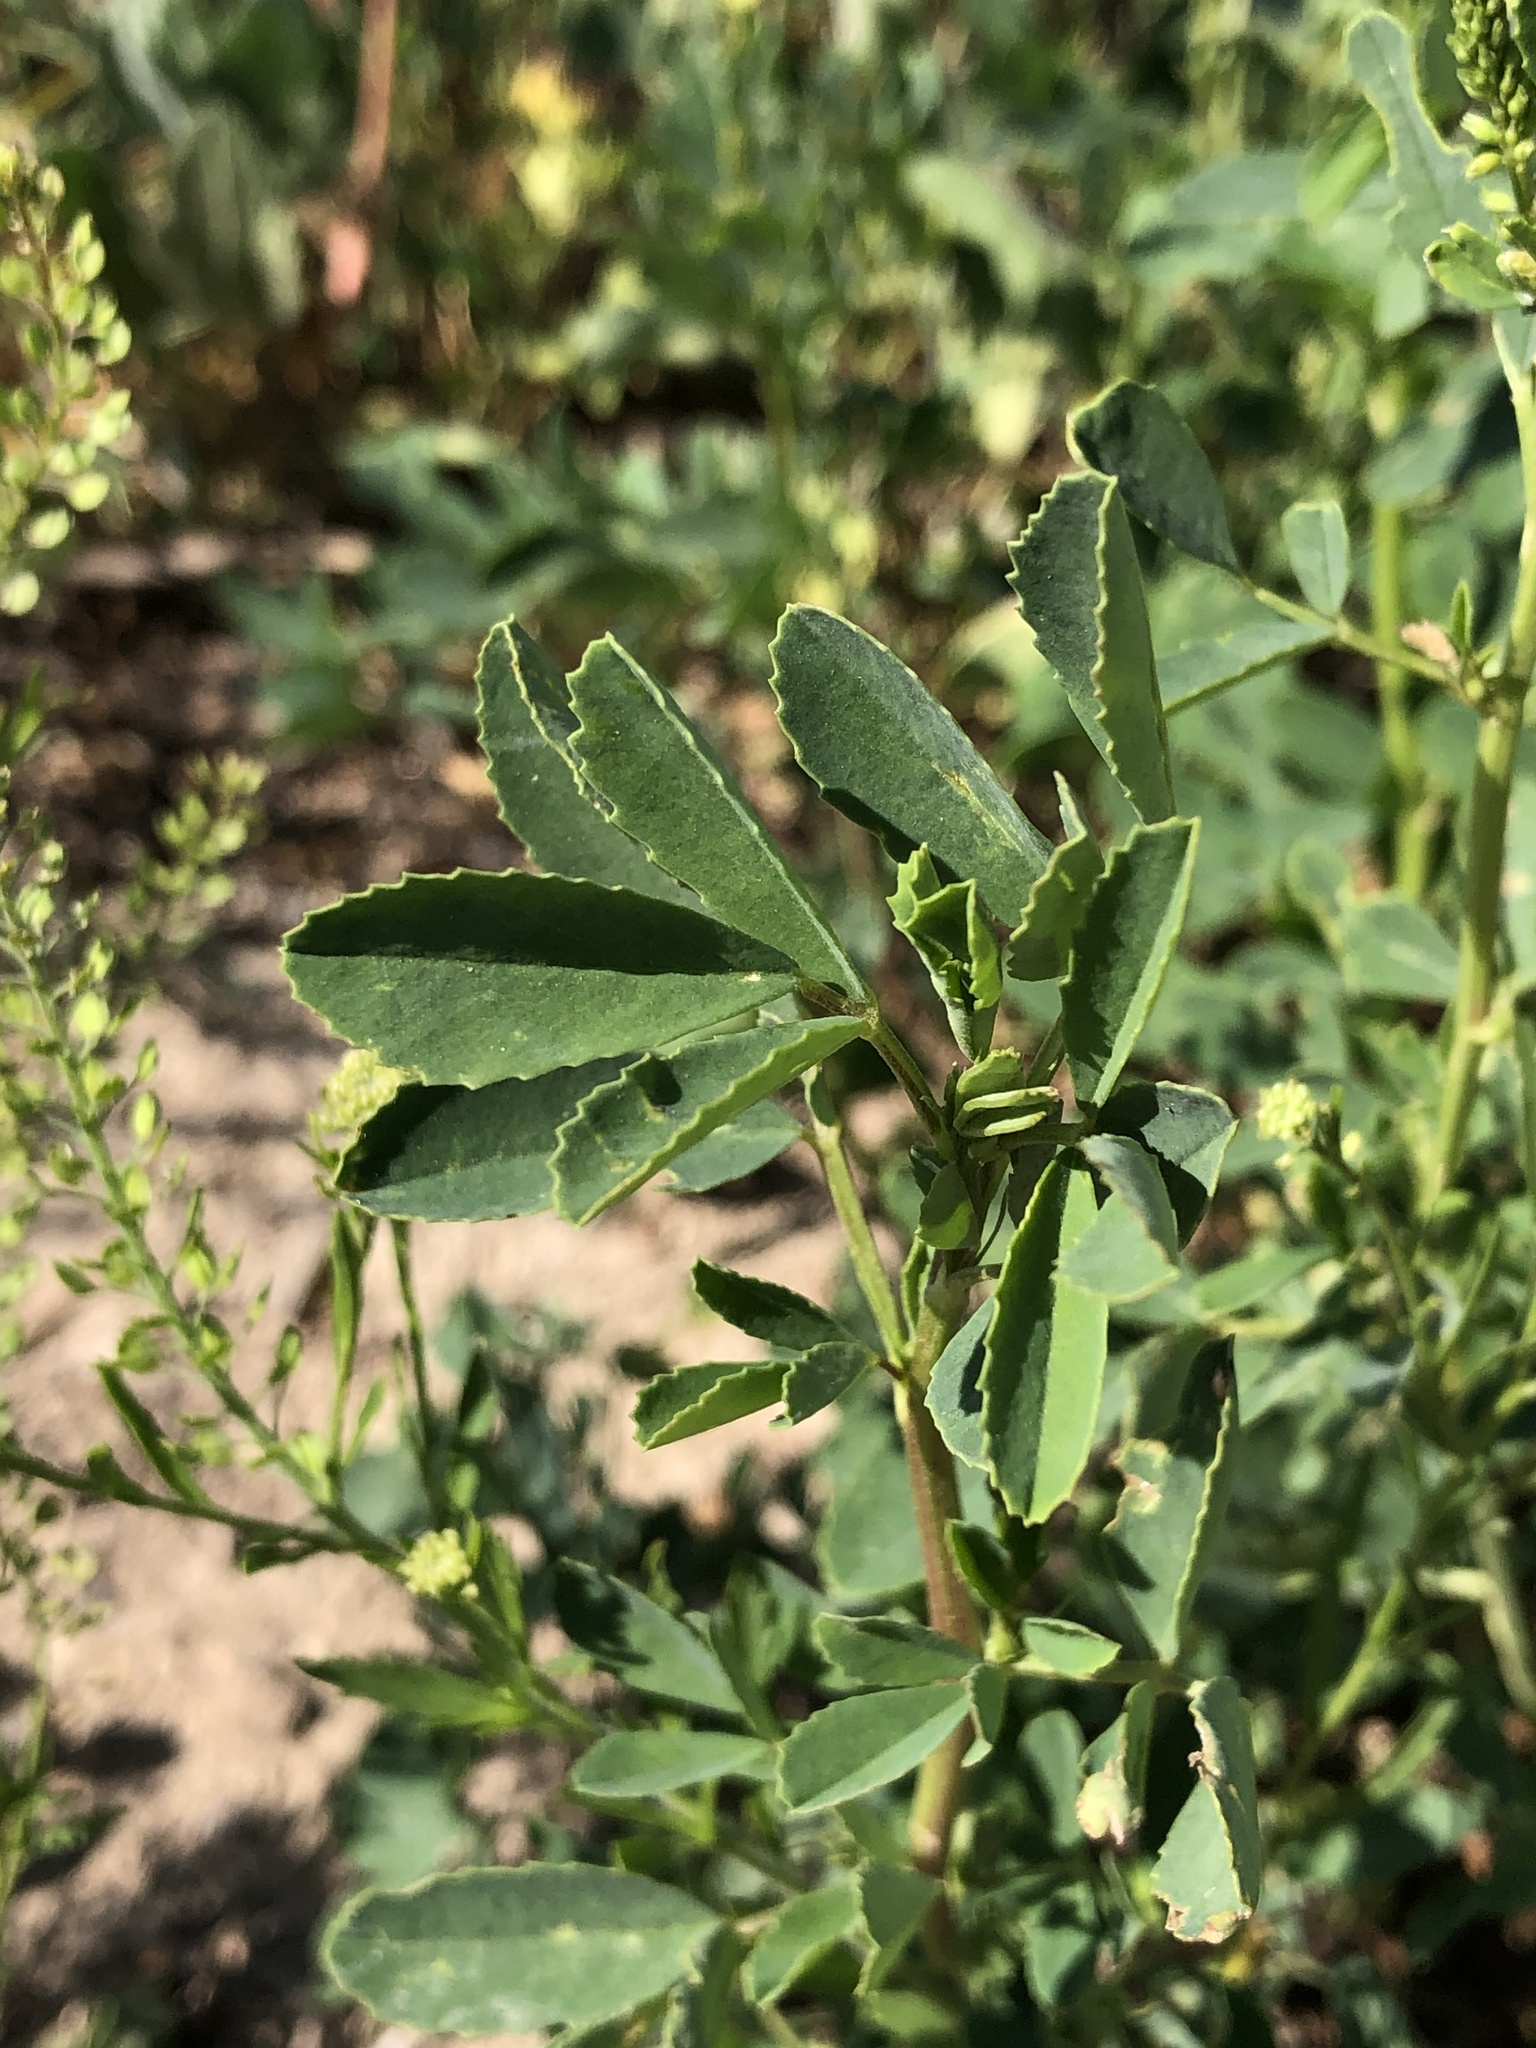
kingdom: Plantae
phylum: Tracheophyta
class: Magnoliopsida
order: Fabales
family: Fabaceae
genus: Melilotus
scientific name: Melilotus albus
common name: White melilot
